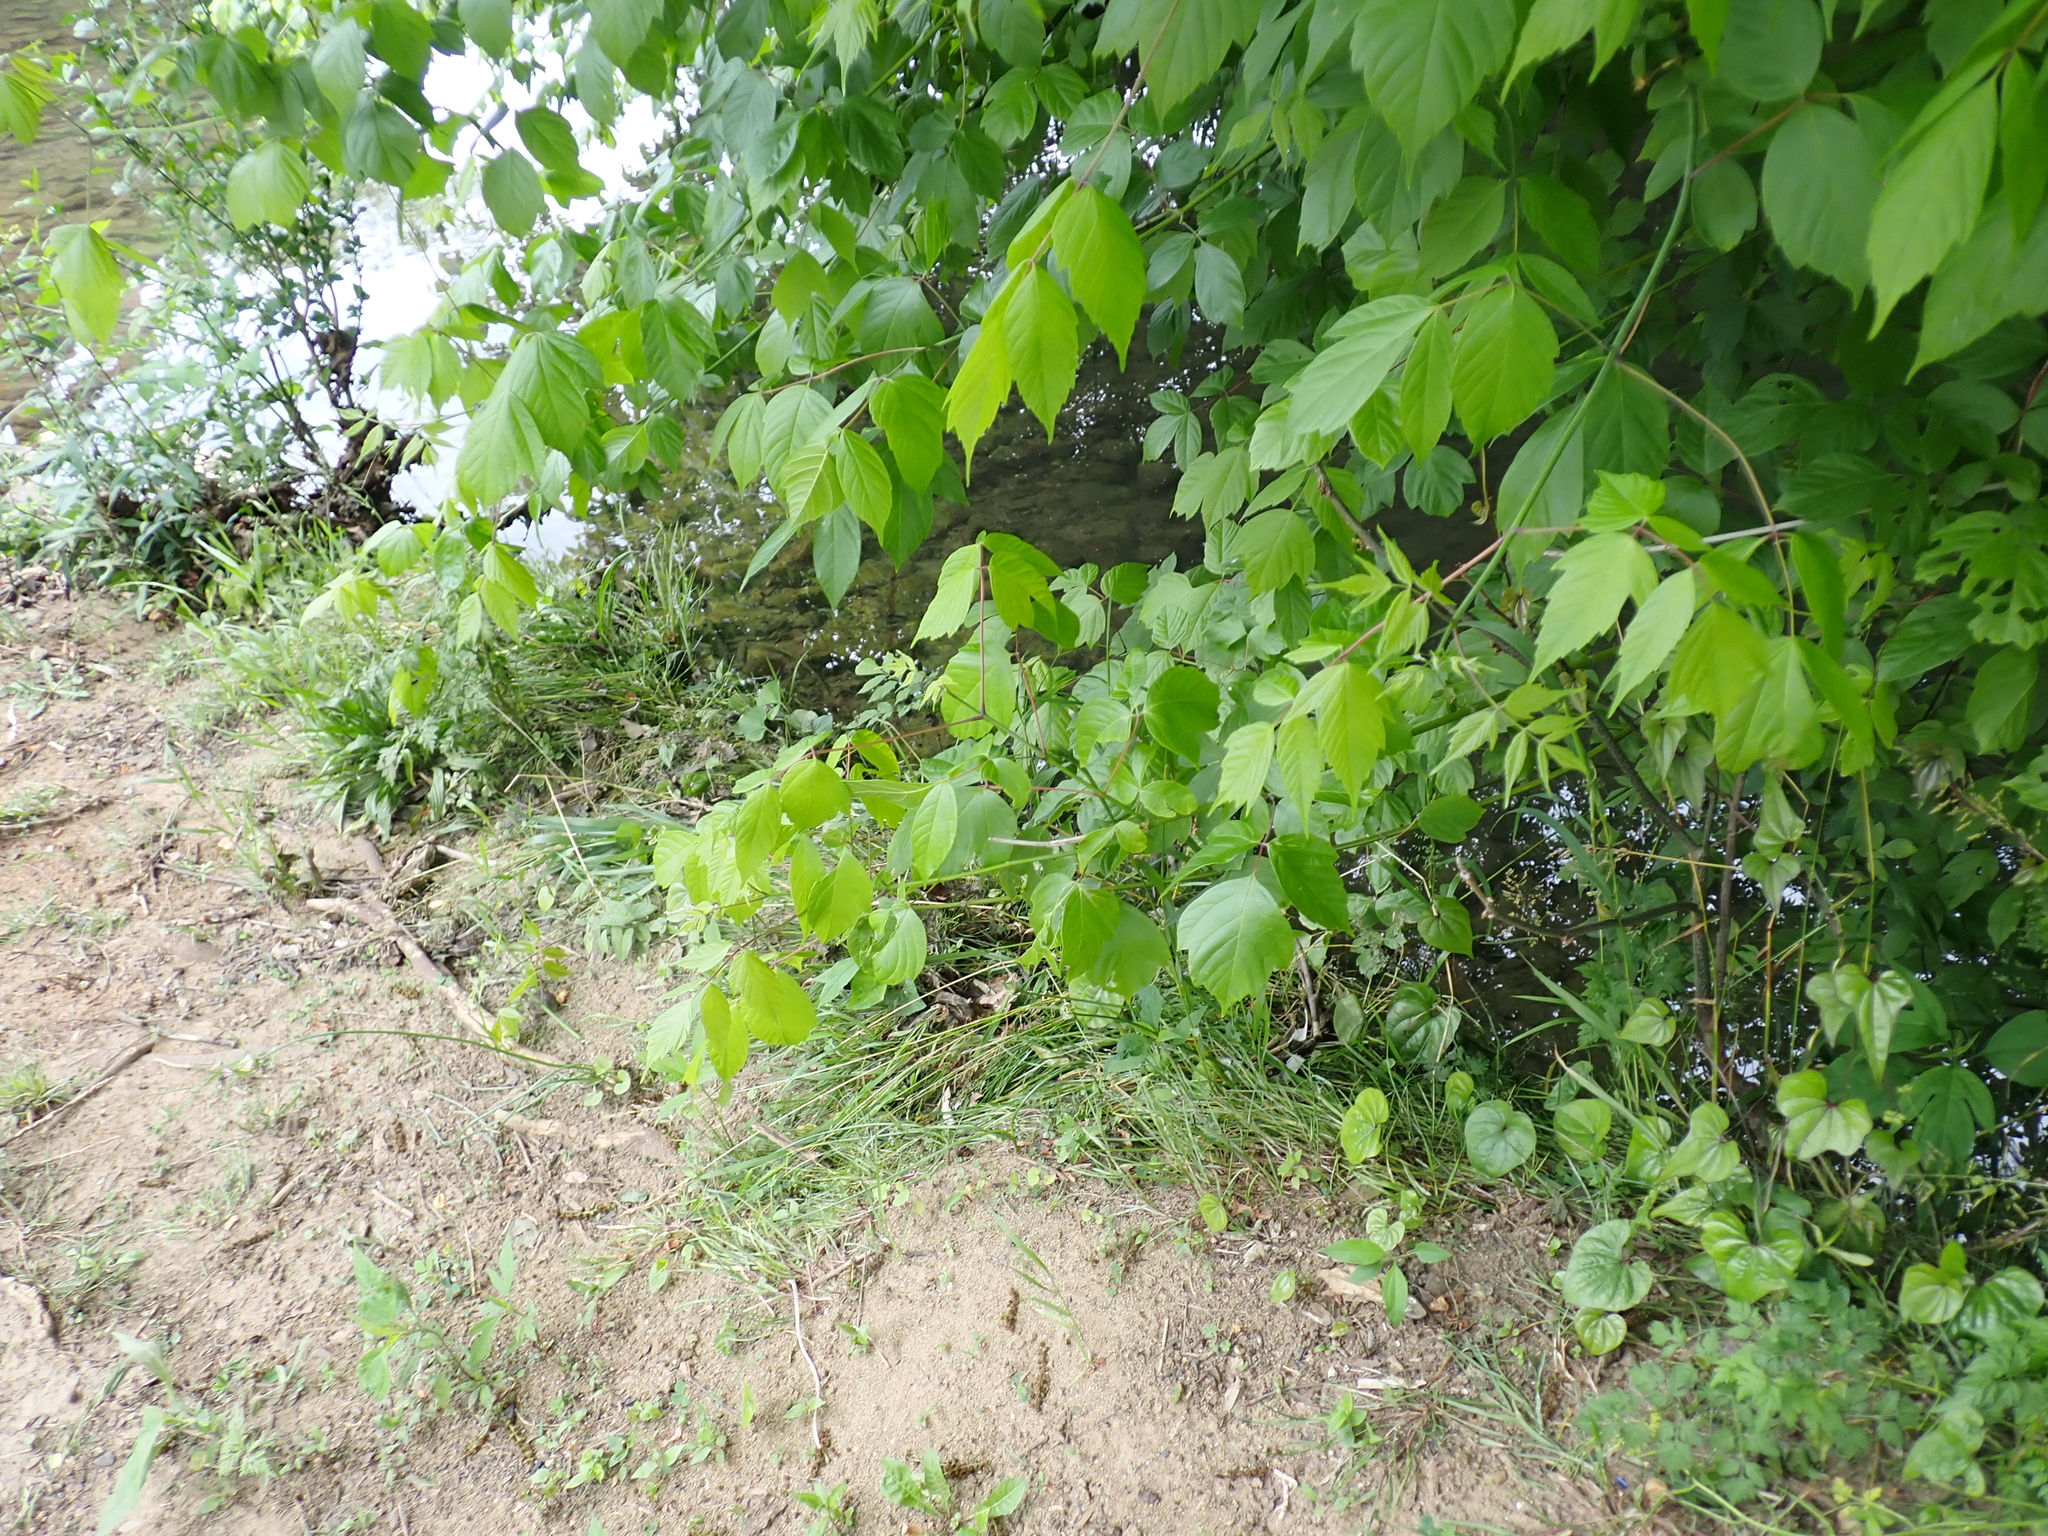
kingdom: Plantae
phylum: Tracheophyta
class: Magnoliopsida
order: Sapindales
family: Sapindaceae
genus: Acer
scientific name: Acer negundo
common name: Ashleaf maple
